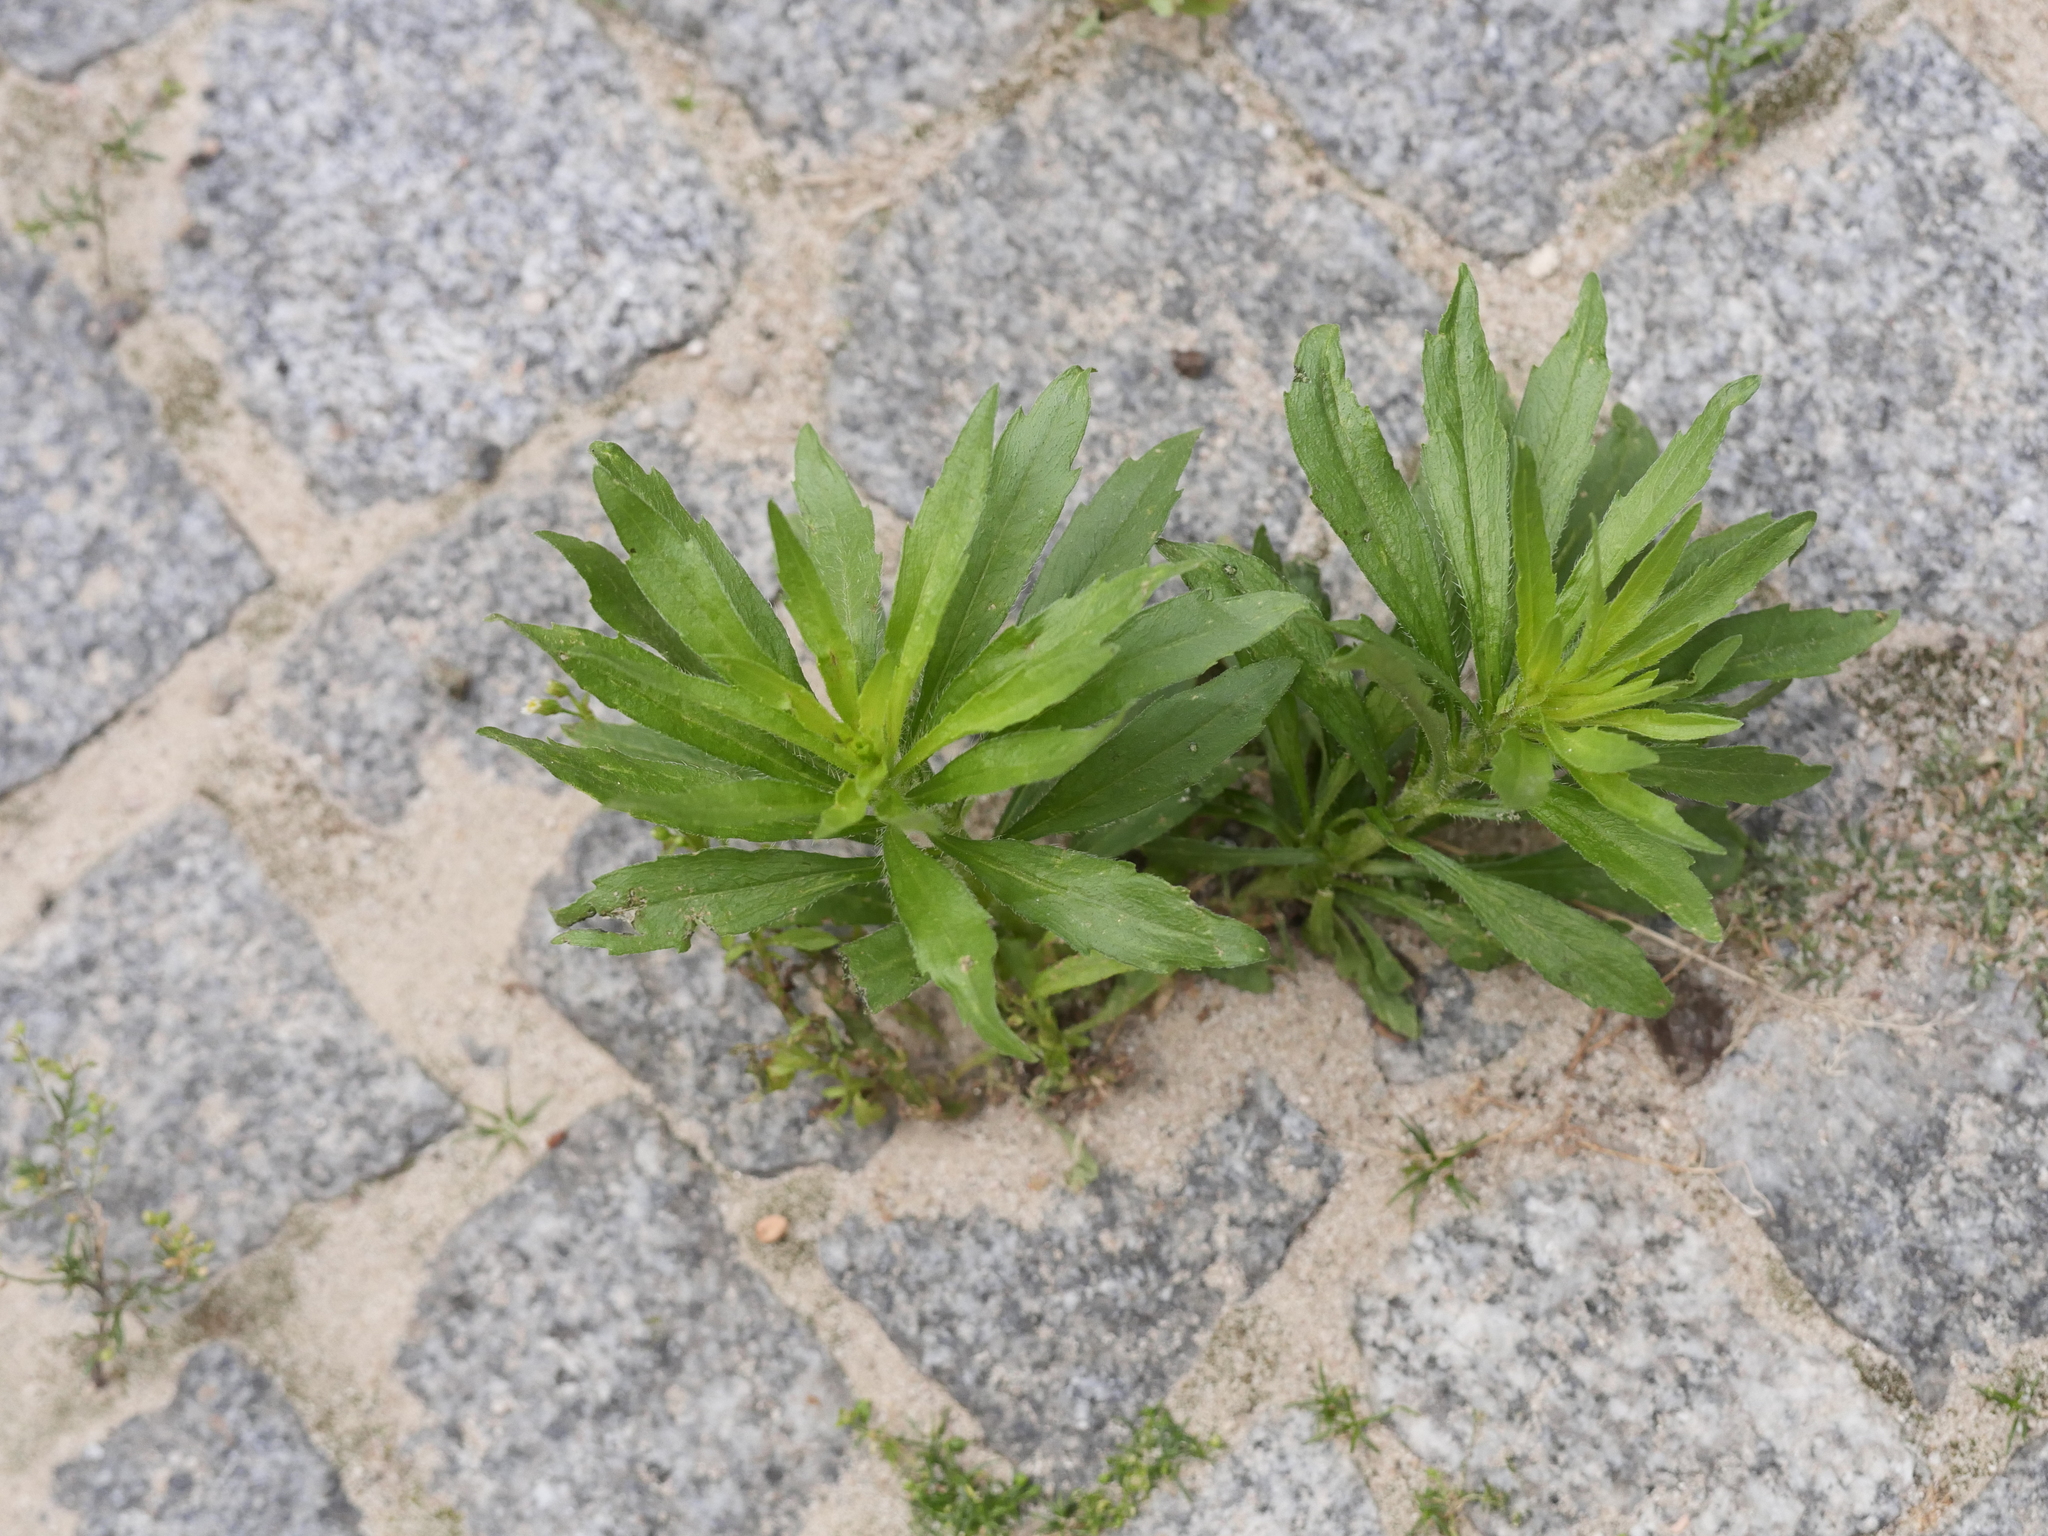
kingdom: Plantae
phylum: Tracheophyta
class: Magnoliopsida
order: Asterales
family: Asteraceae
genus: Erigeron
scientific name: Erigeron canadensis
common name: Canadian fleabane
